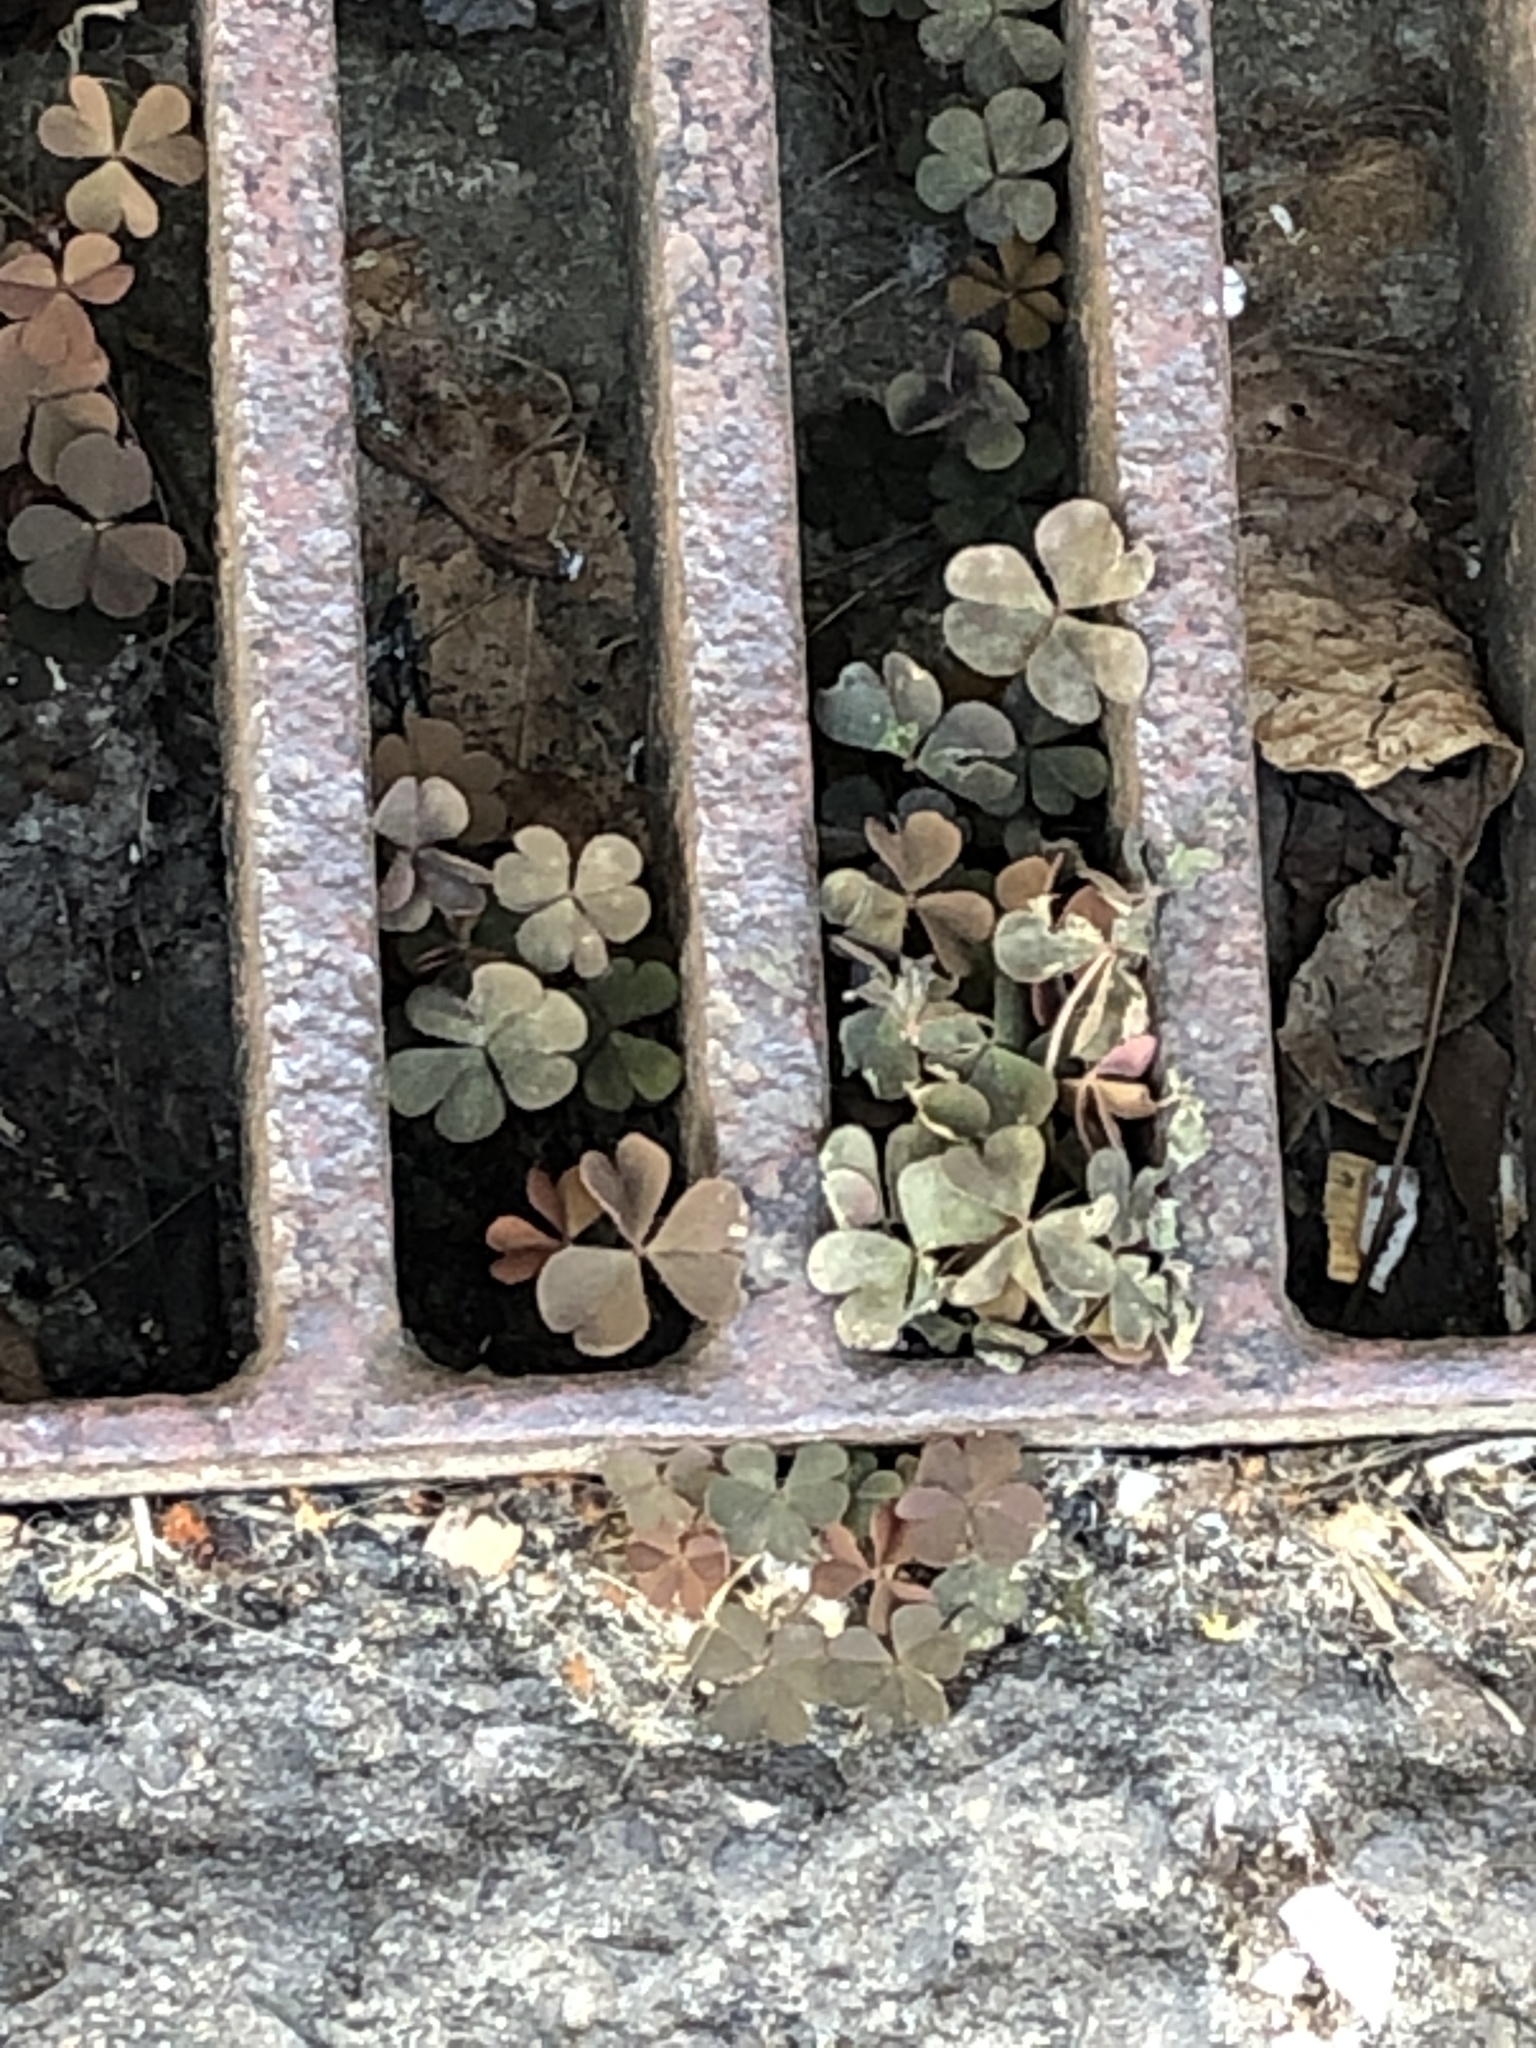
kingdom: Plantae
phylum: Tracheophyta
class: Magnoliopsida
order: Oxalidales
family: Oxalidaceae
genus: Oxalis
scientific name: Oxalis corniculata
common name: Procumbent yellow-sorrel
